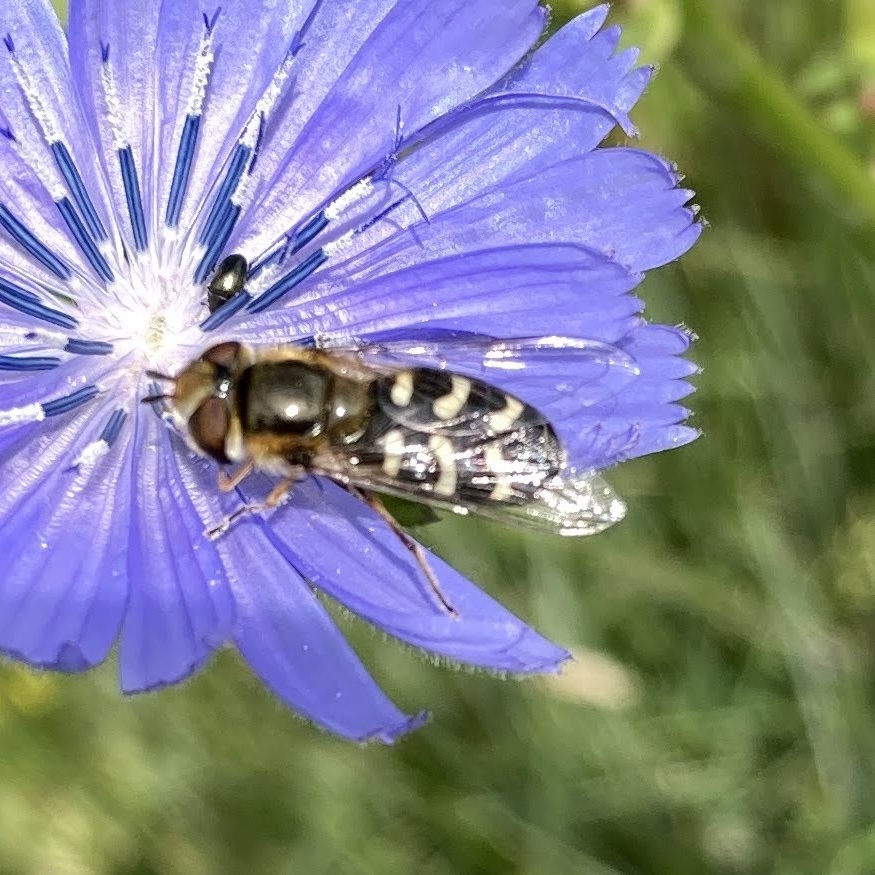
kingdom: Animalia
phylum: Arthropoda
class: Insecta
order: Diptera
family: Syrphidae
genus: Scaeva
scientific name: Scaeva pyrastri
